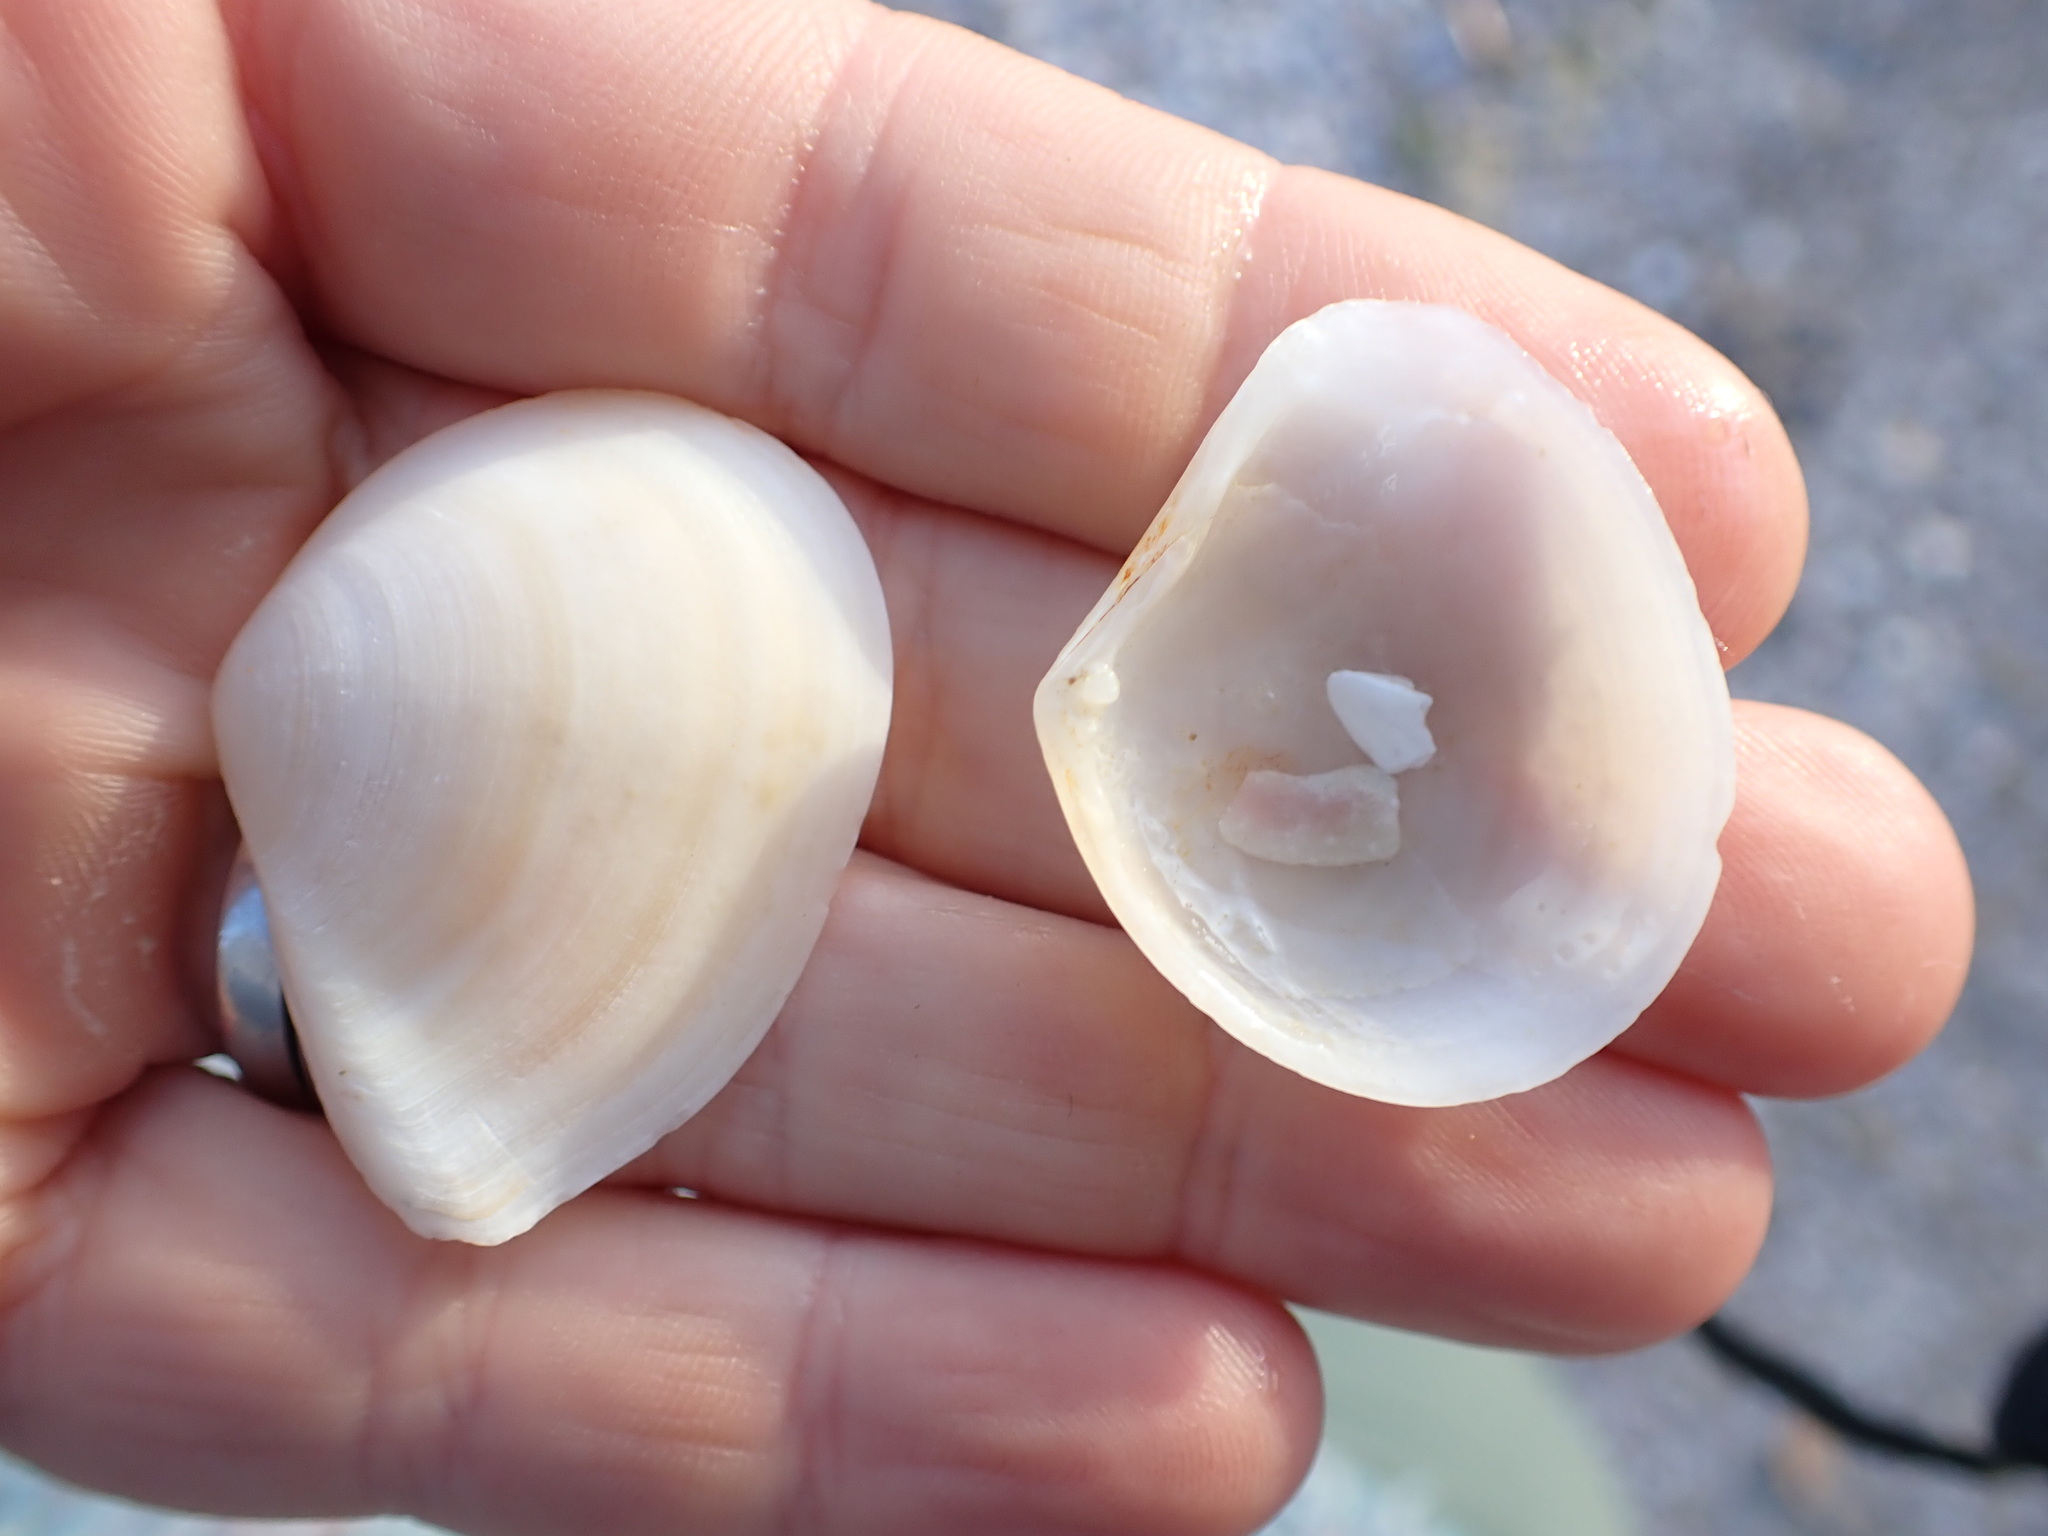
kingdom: Animalia
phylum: Mollusca
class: Bivalvia
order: Cardiida
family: Tellinidae
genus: Macomona
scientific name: Macomona liliana
